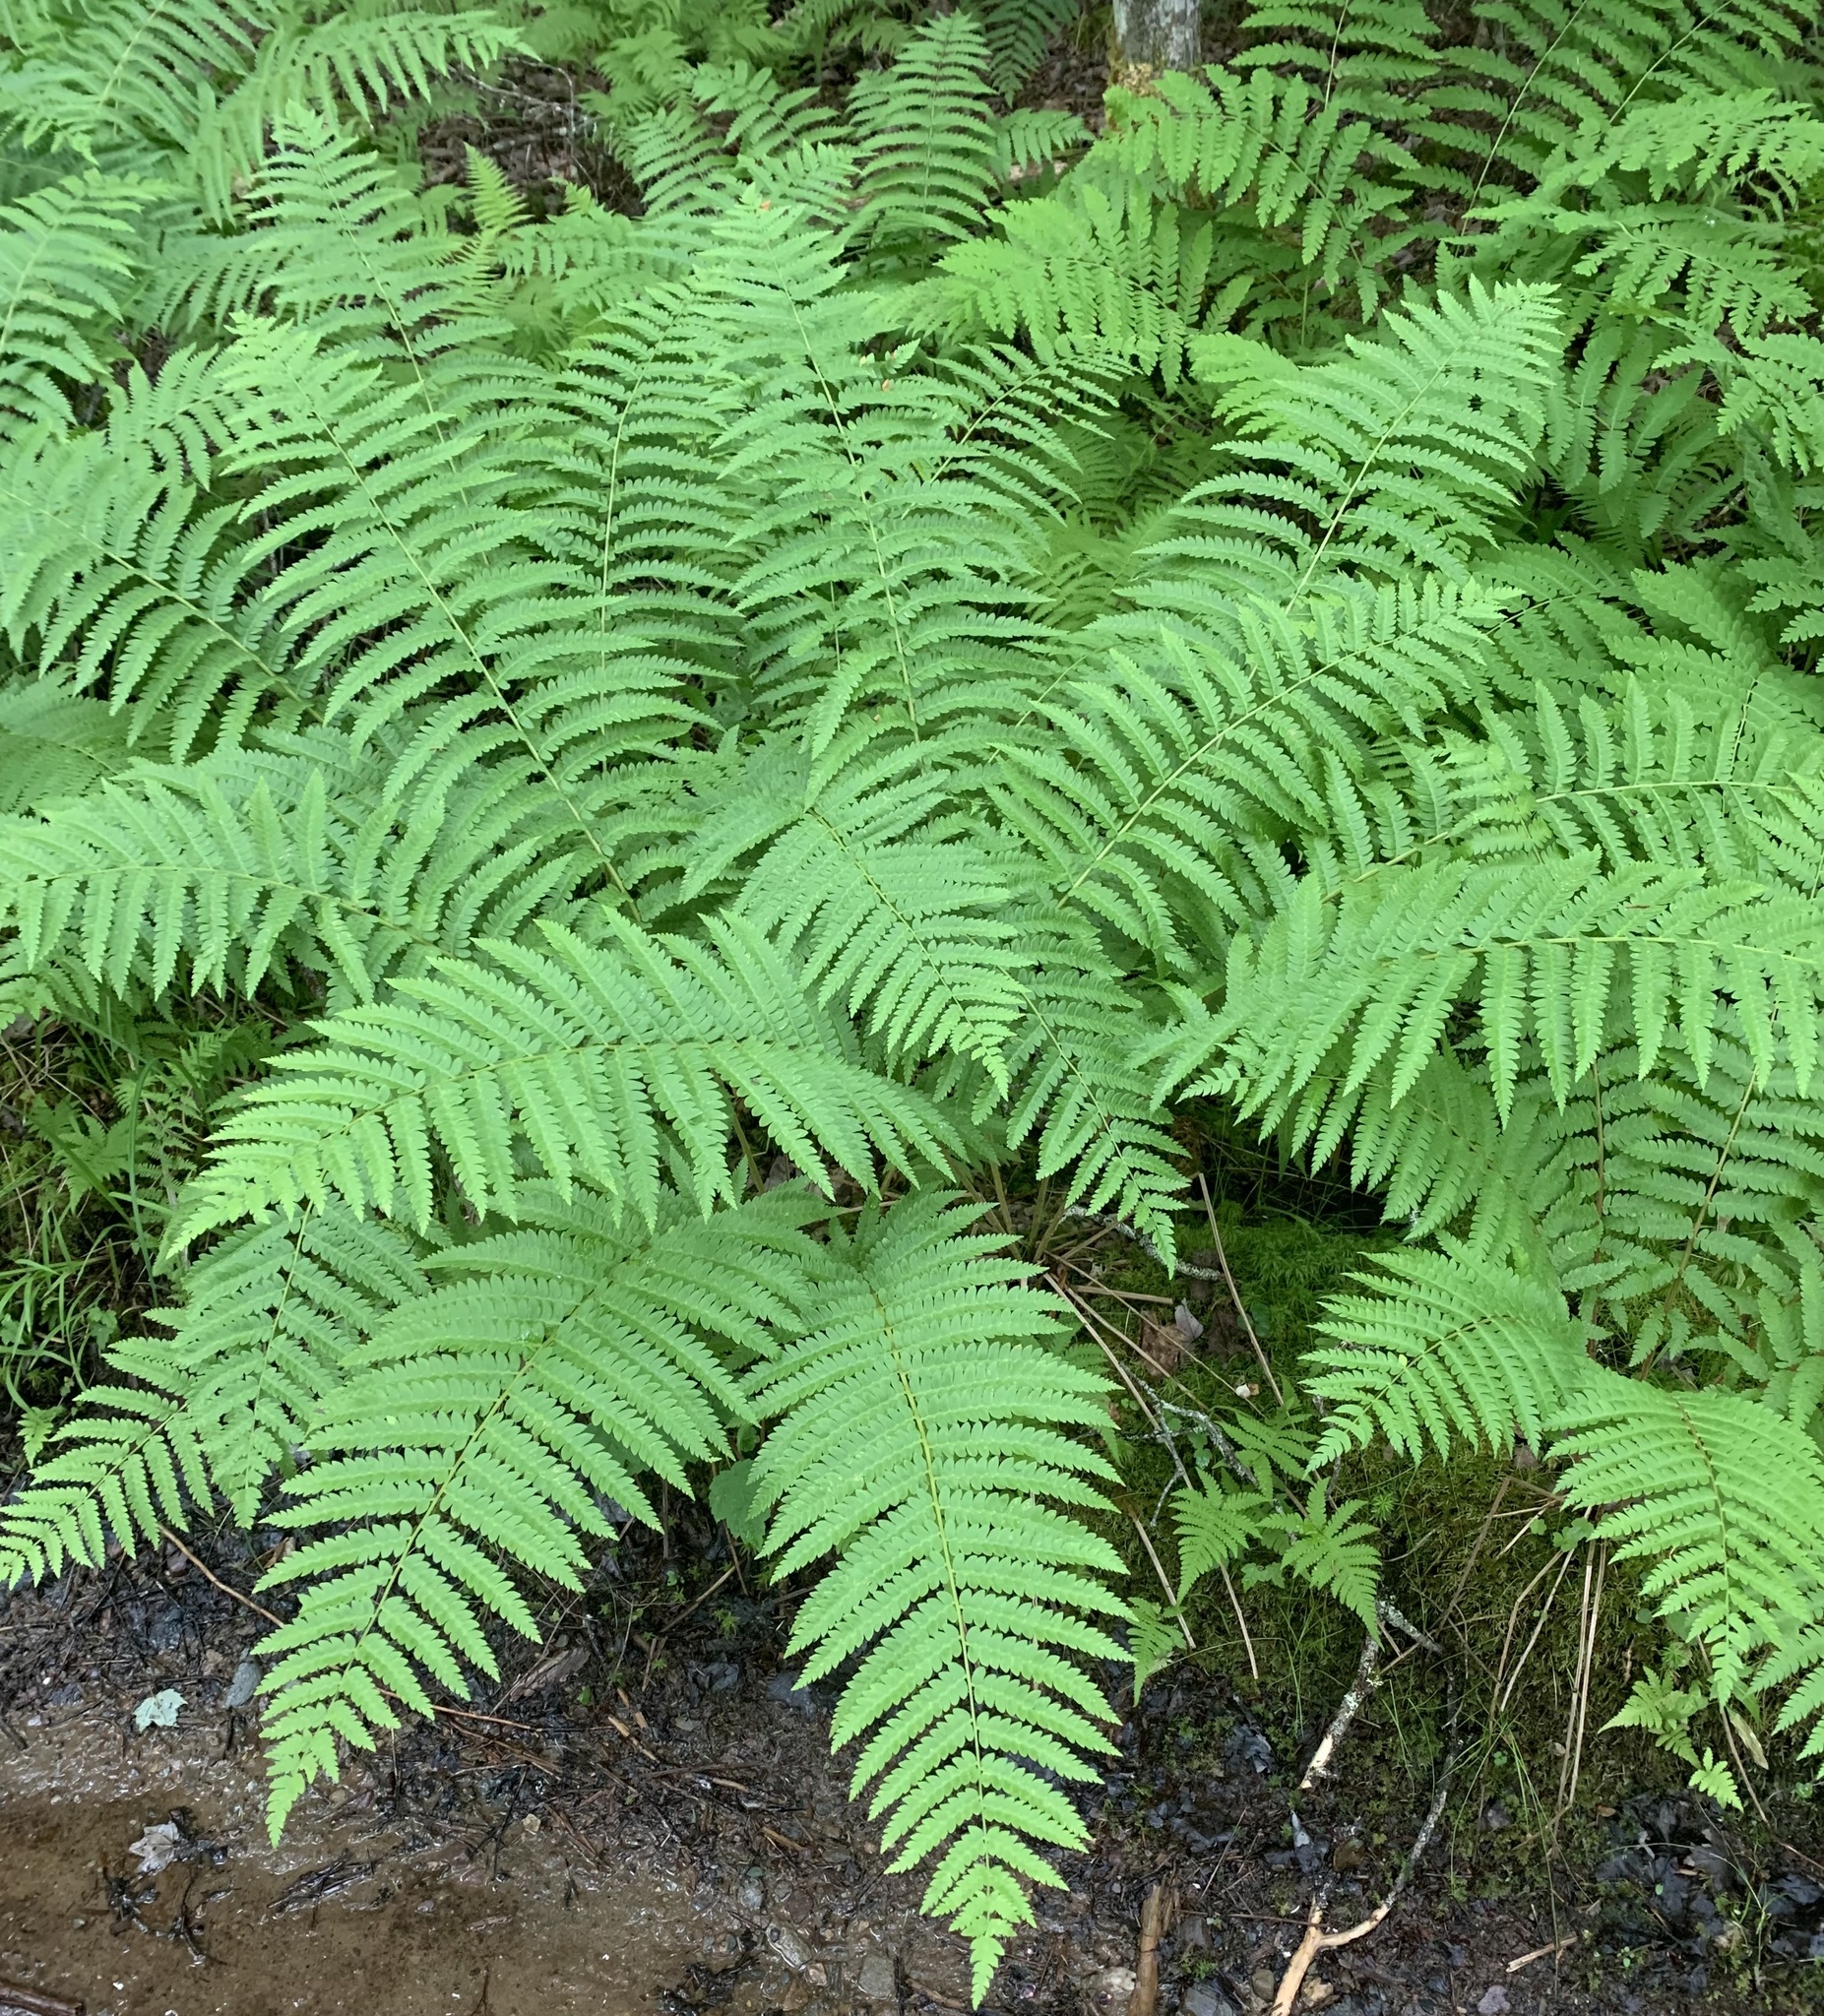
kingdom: Plantae
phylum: Tracheophyta
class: Polypodiopsida
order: Osmundales
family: Osmundaceae
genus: Osmundastrum
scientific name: Osmundastrum cinnamomeum
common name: Cinnamon fern
